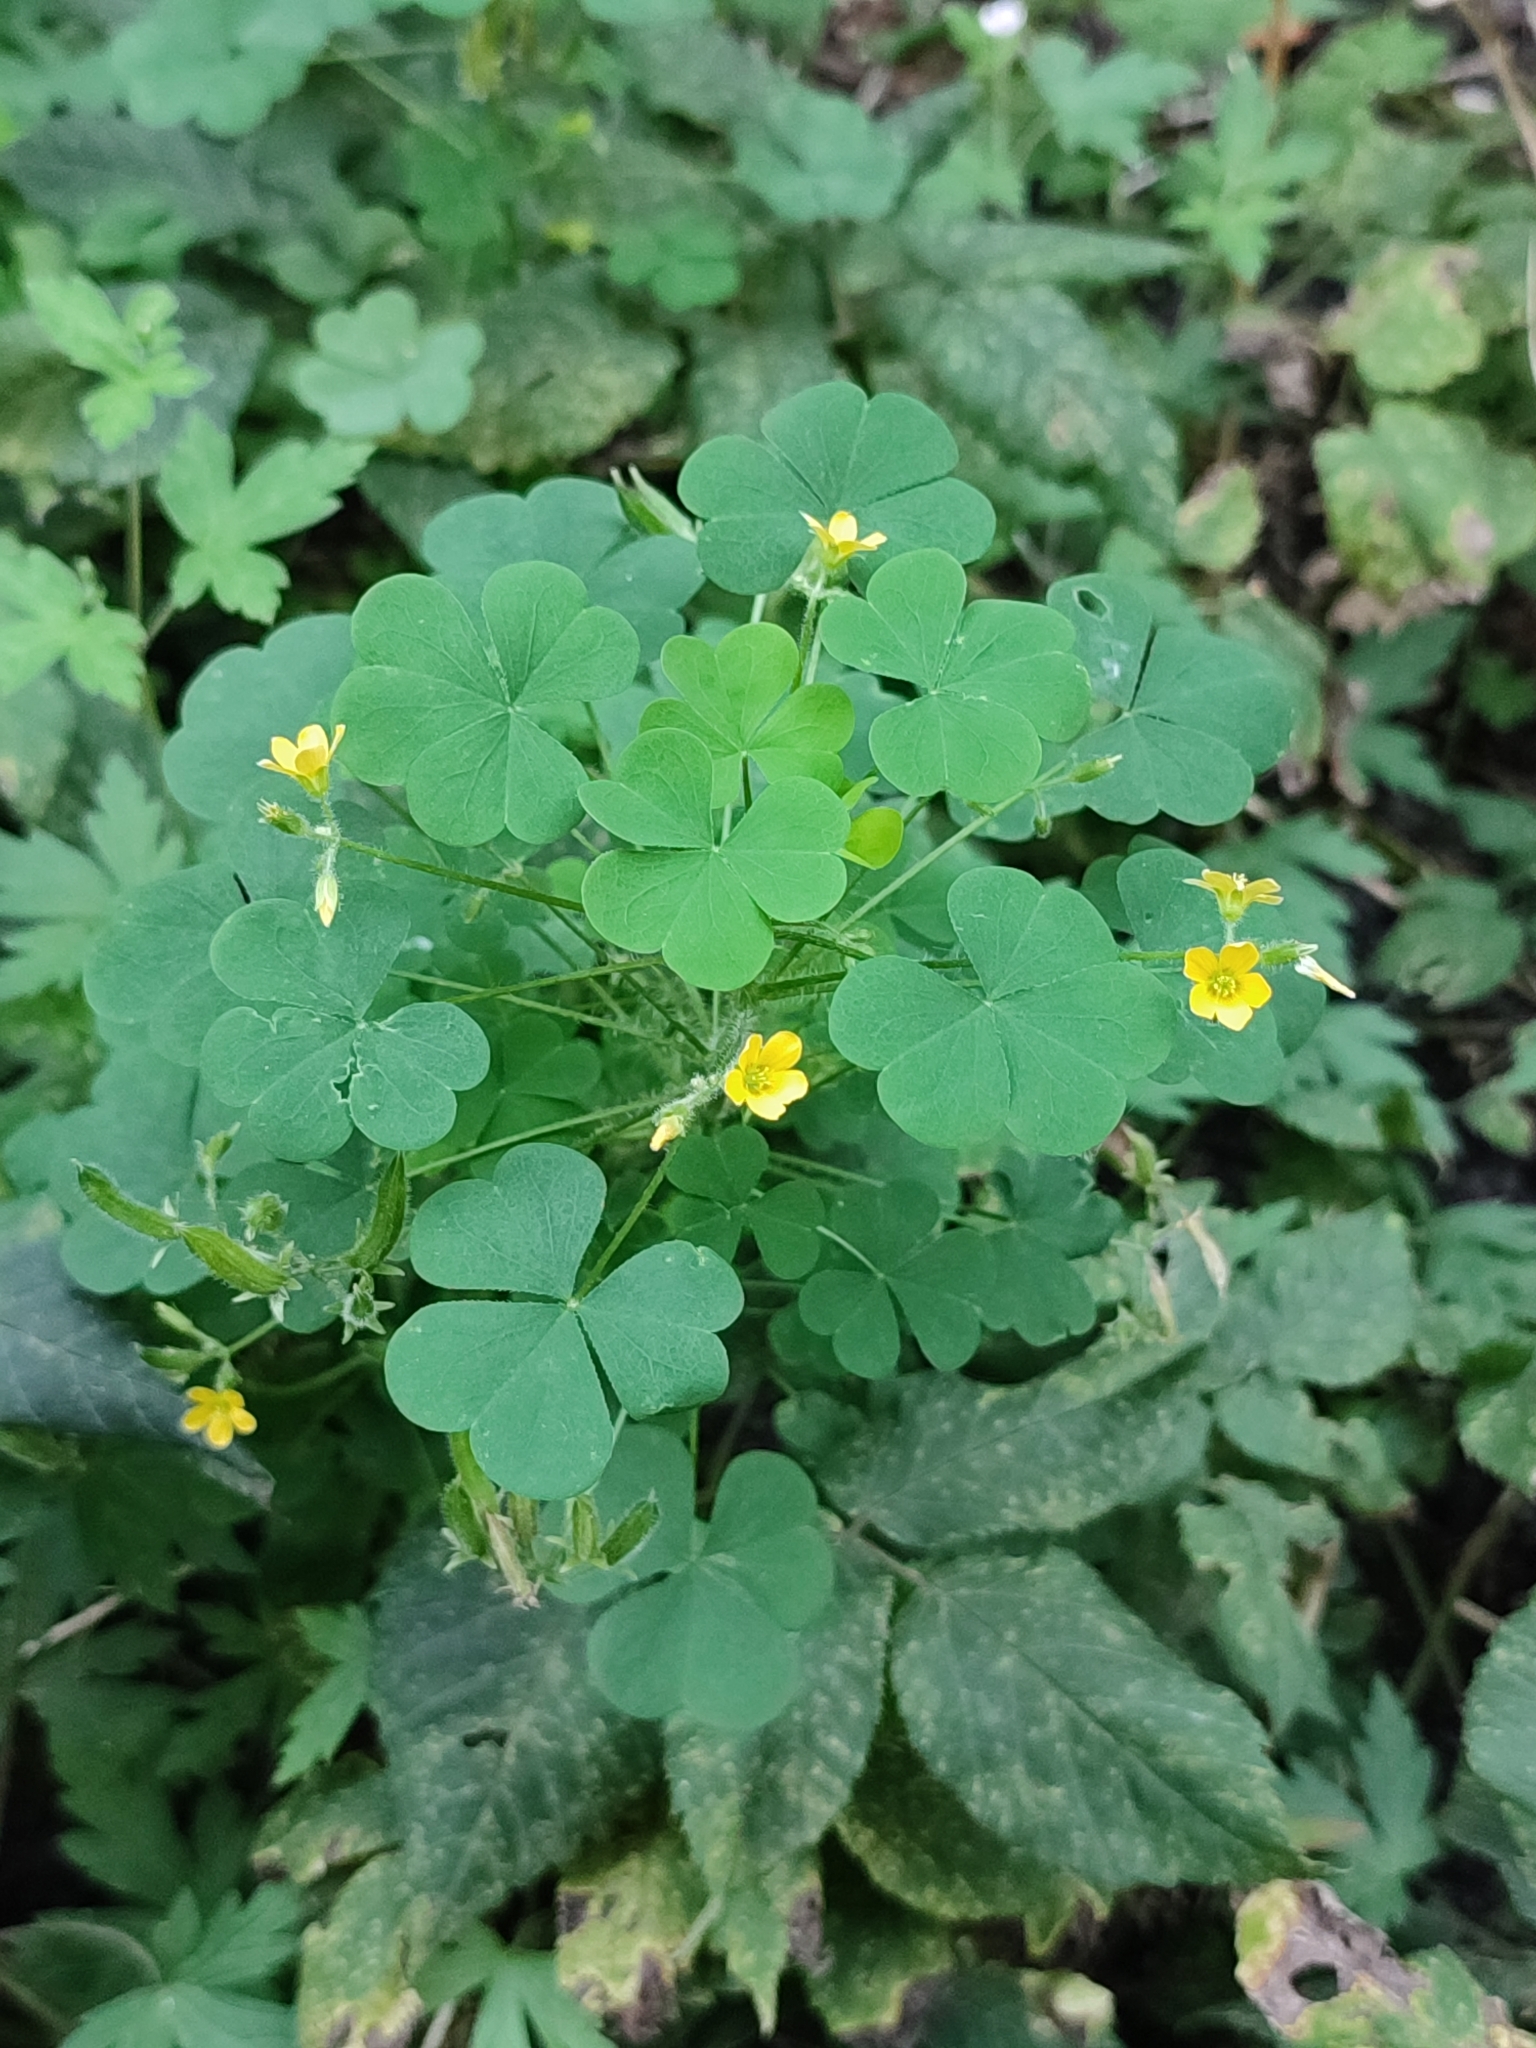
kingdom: Plantae
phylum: Tracheophyta
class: Magnoliopsida
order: Oxalidales
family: Oxalidaceae
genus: Oxalis
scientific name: Oxalis stricta
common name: Upright yellow-sorrel
